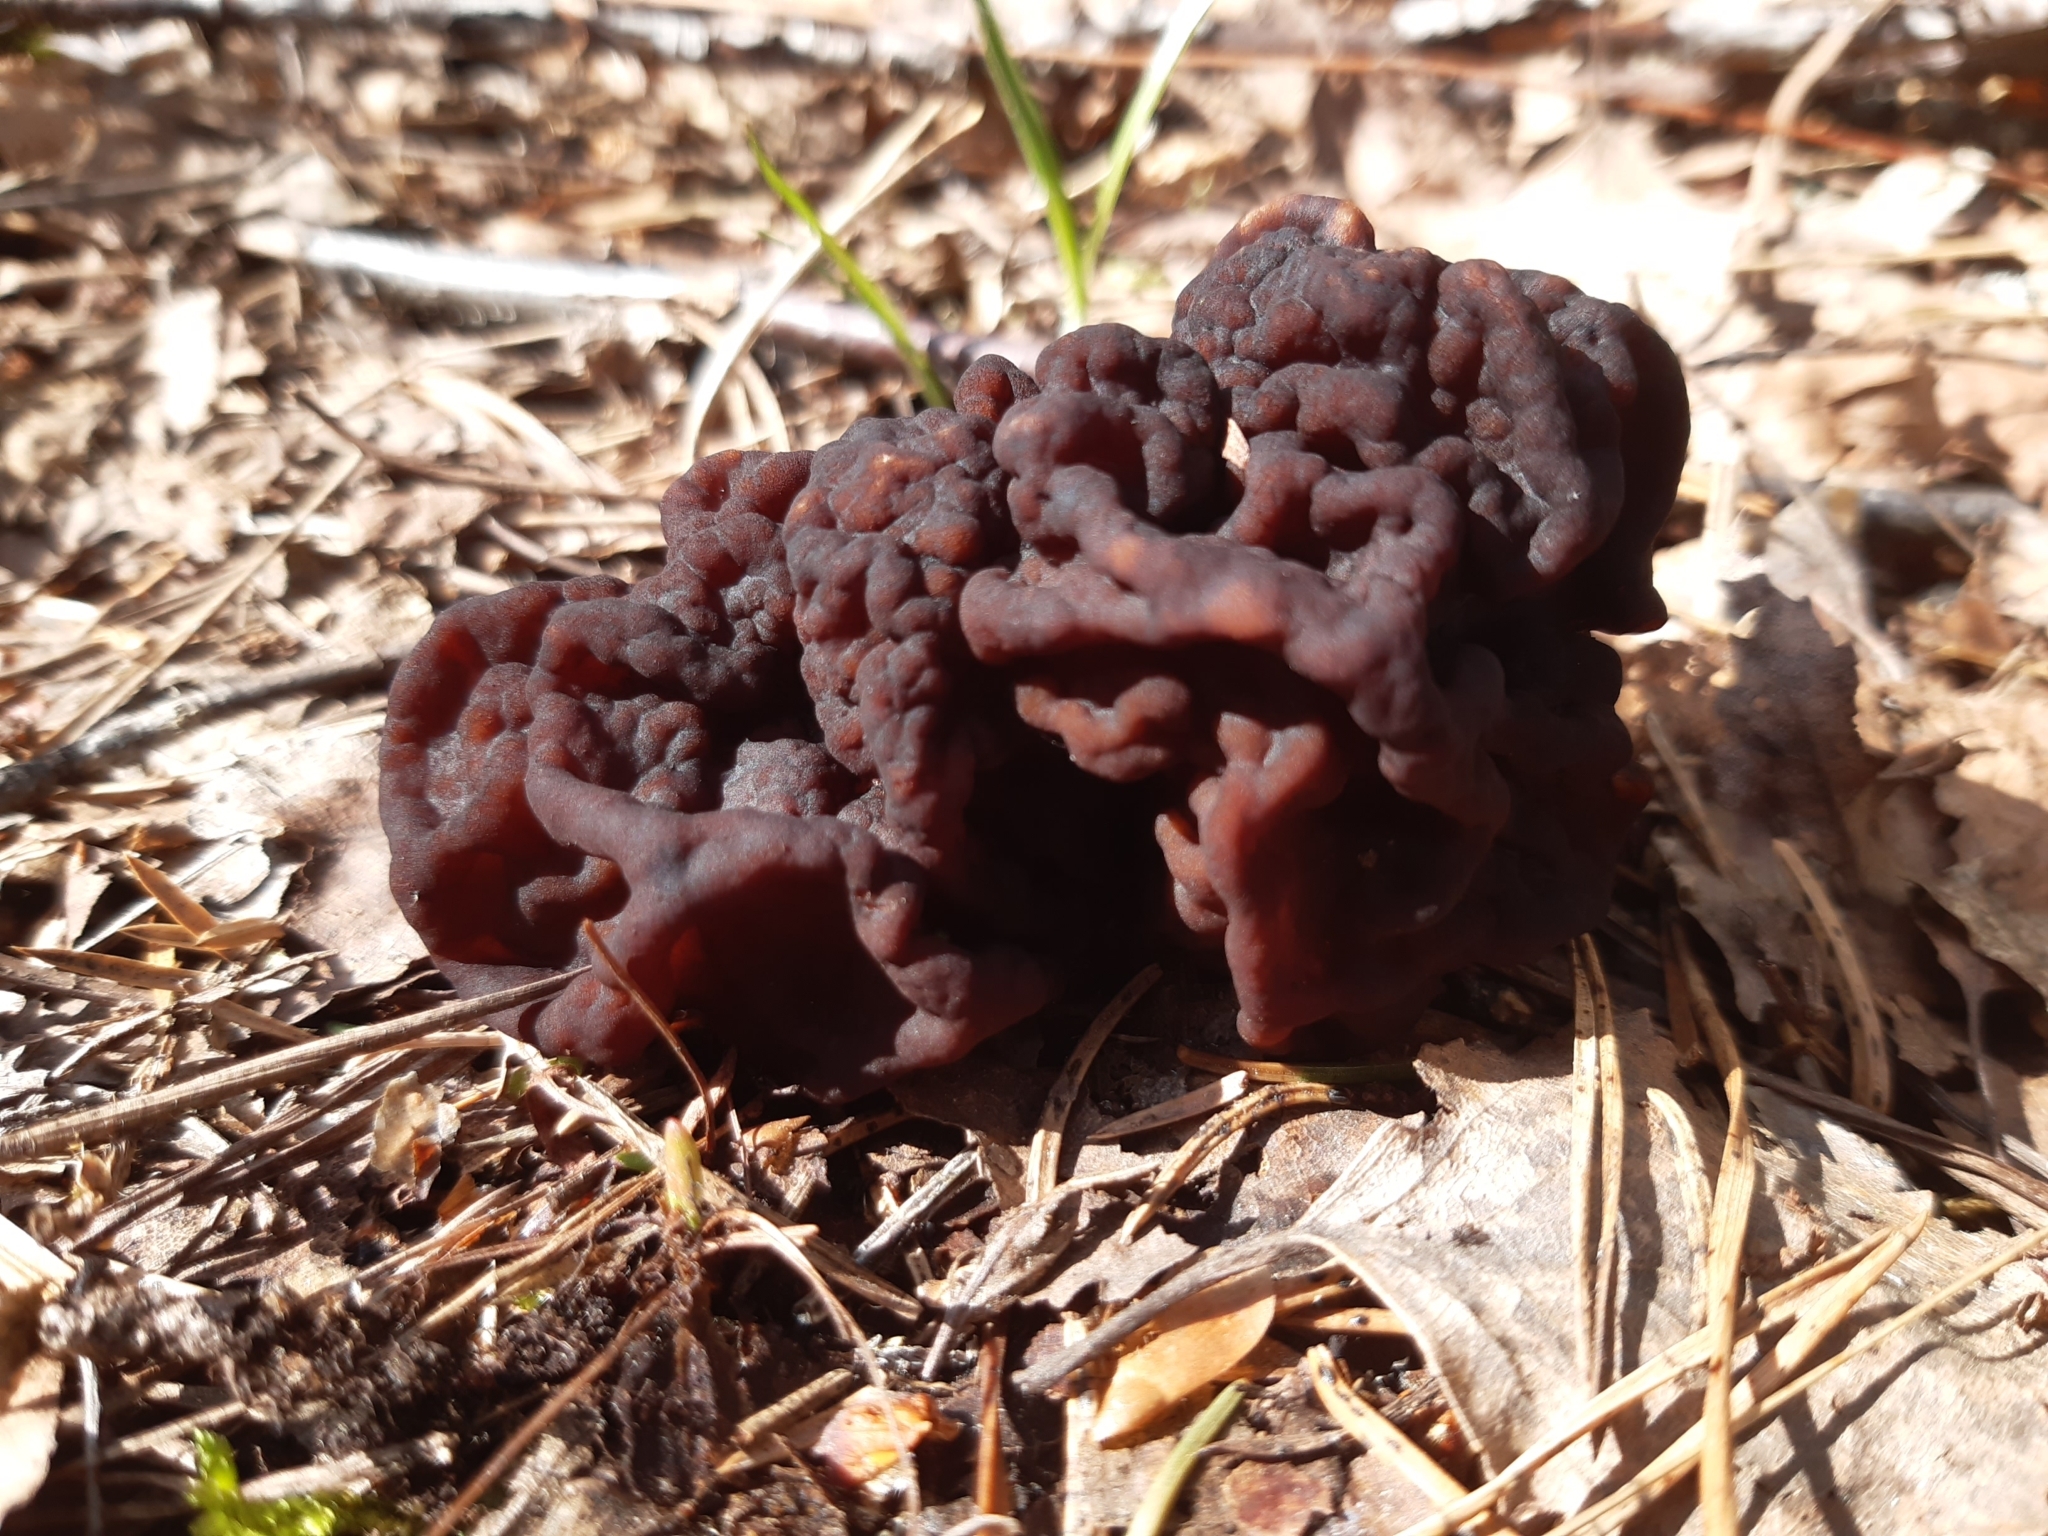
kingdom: Fungi
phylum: Ascomycota
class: Pezizomycetes
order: Pezizales
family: Discinaceae
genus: Gyromitra
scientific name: Gyromitra esculenta
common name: False morel
